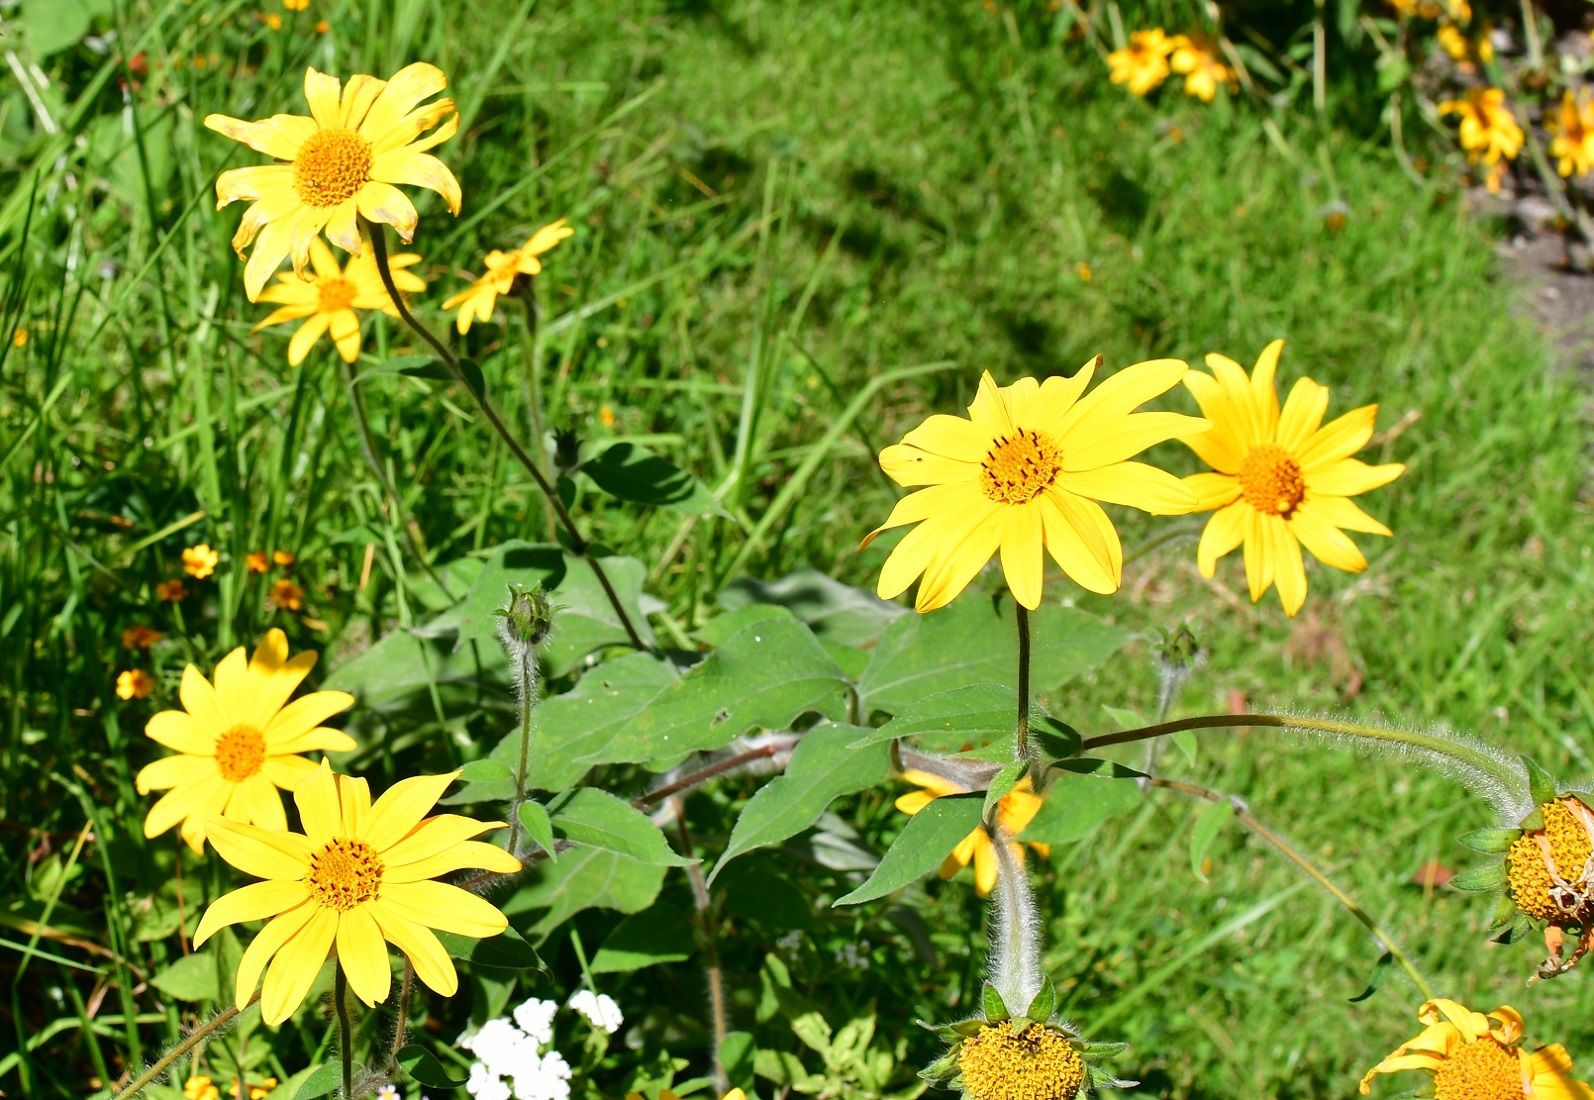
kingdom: Plantae
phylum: Tracheophyta
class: Magnoliopsida
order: Asterales
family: Asteraceae
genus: Tithonia
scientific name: Tithonia tubaeformis
